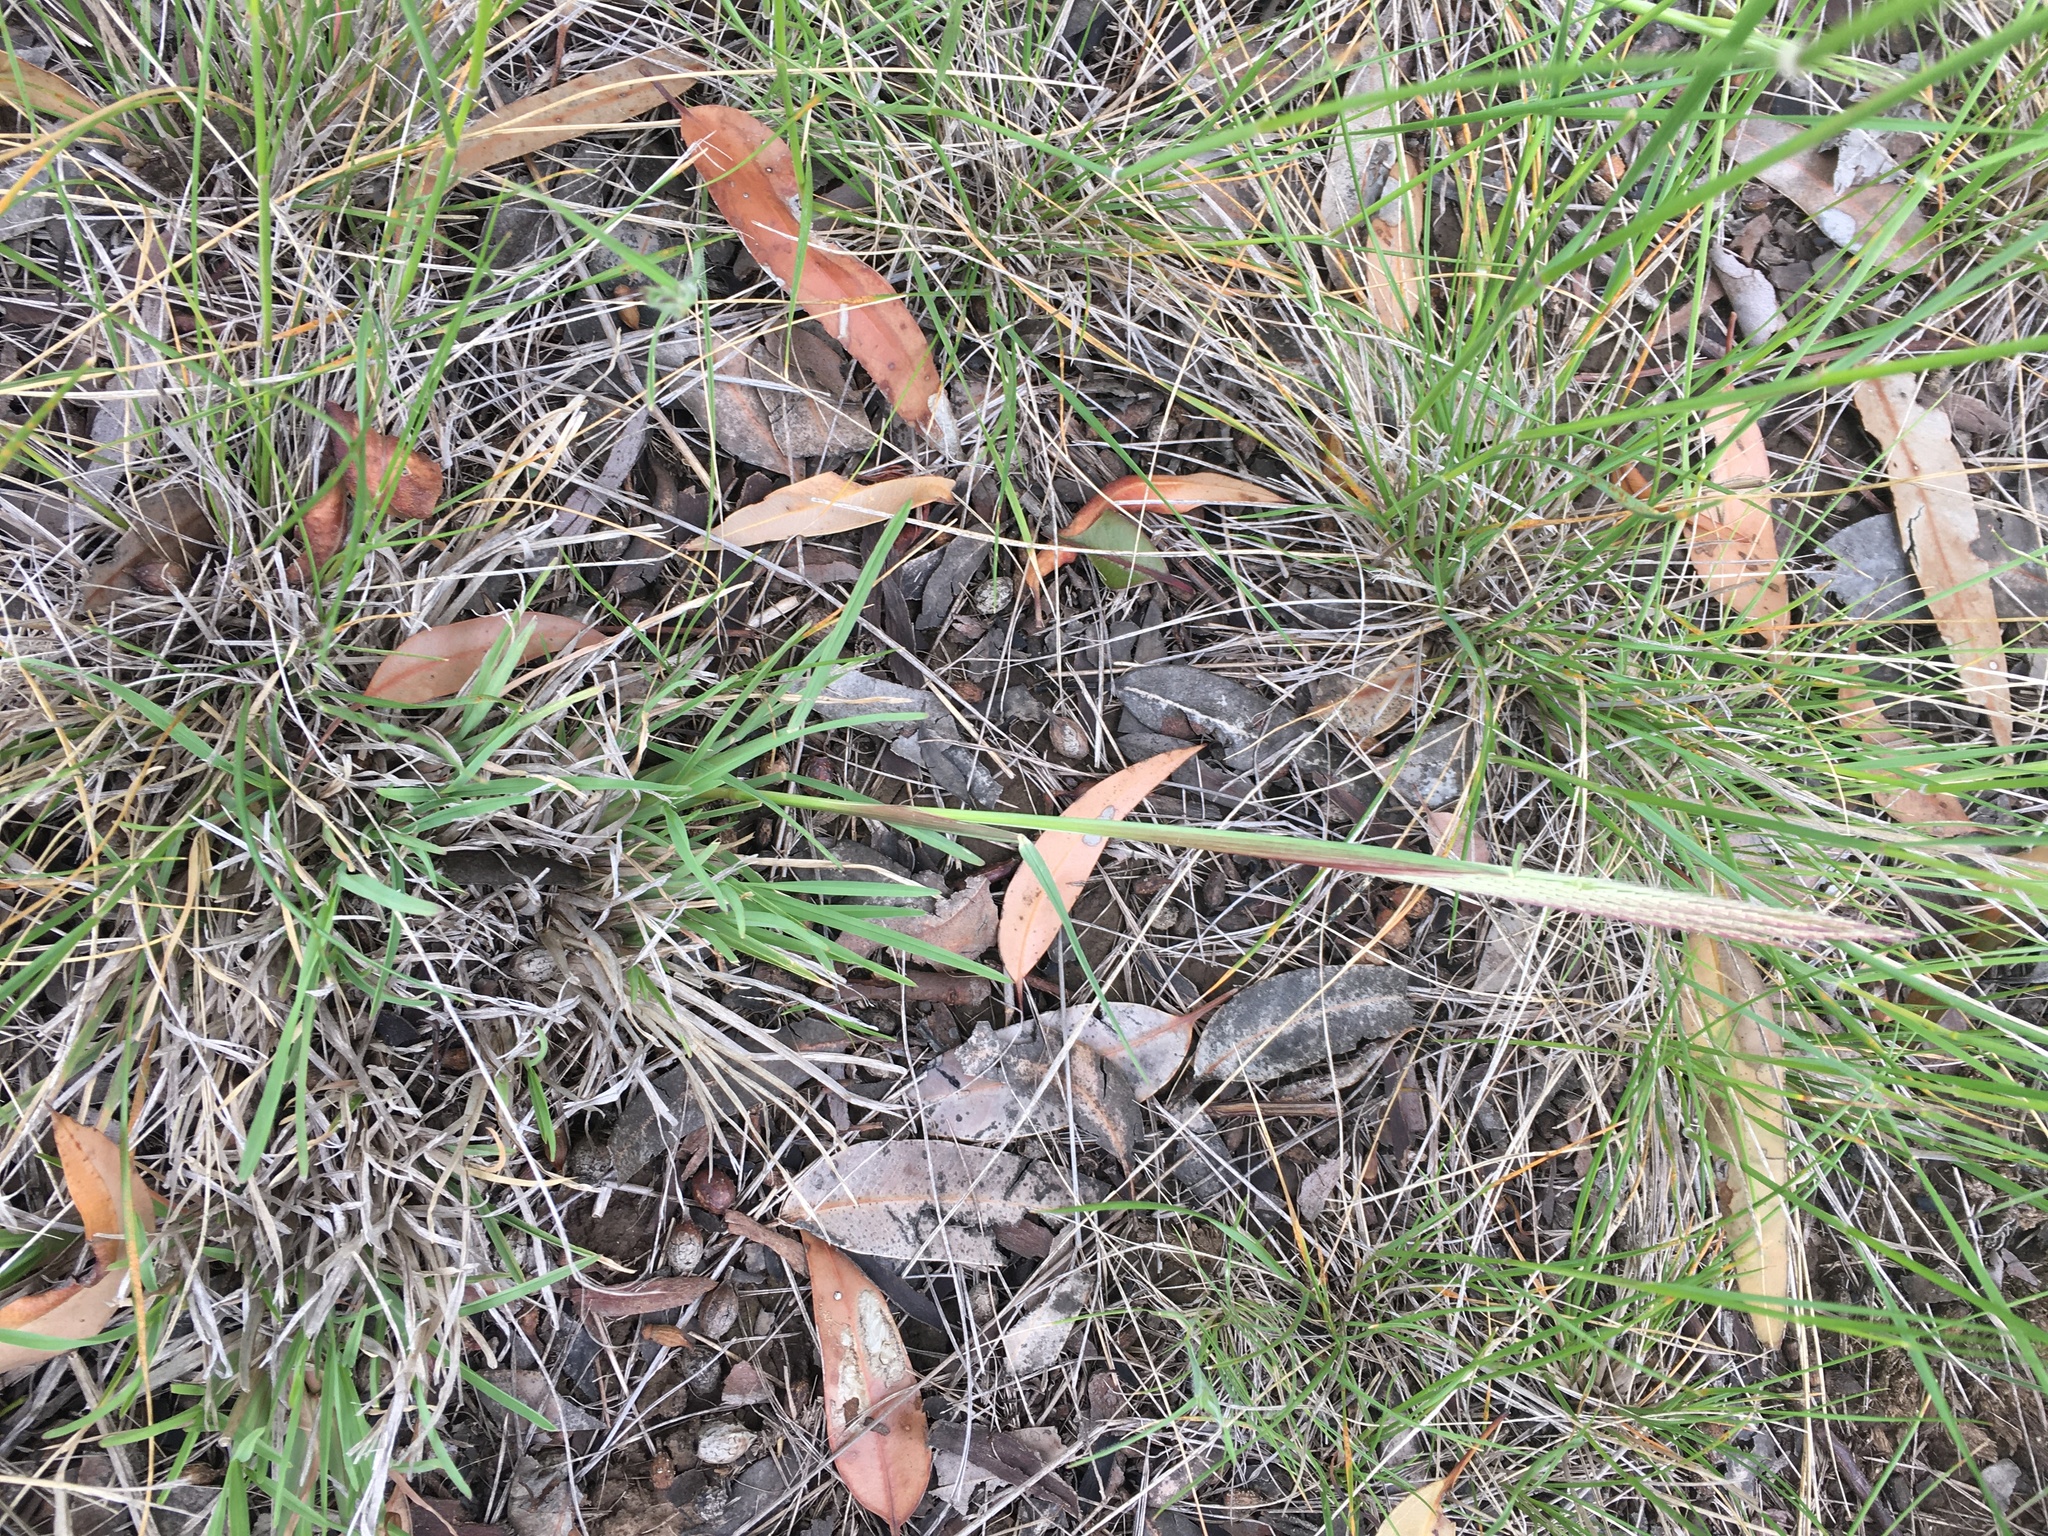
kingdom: Plantae
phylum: Tracheophyta
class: Liliopsida
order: Poales
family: Poaceae
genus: Chloris
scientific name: Chloris truncata
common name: Windmill-grass
